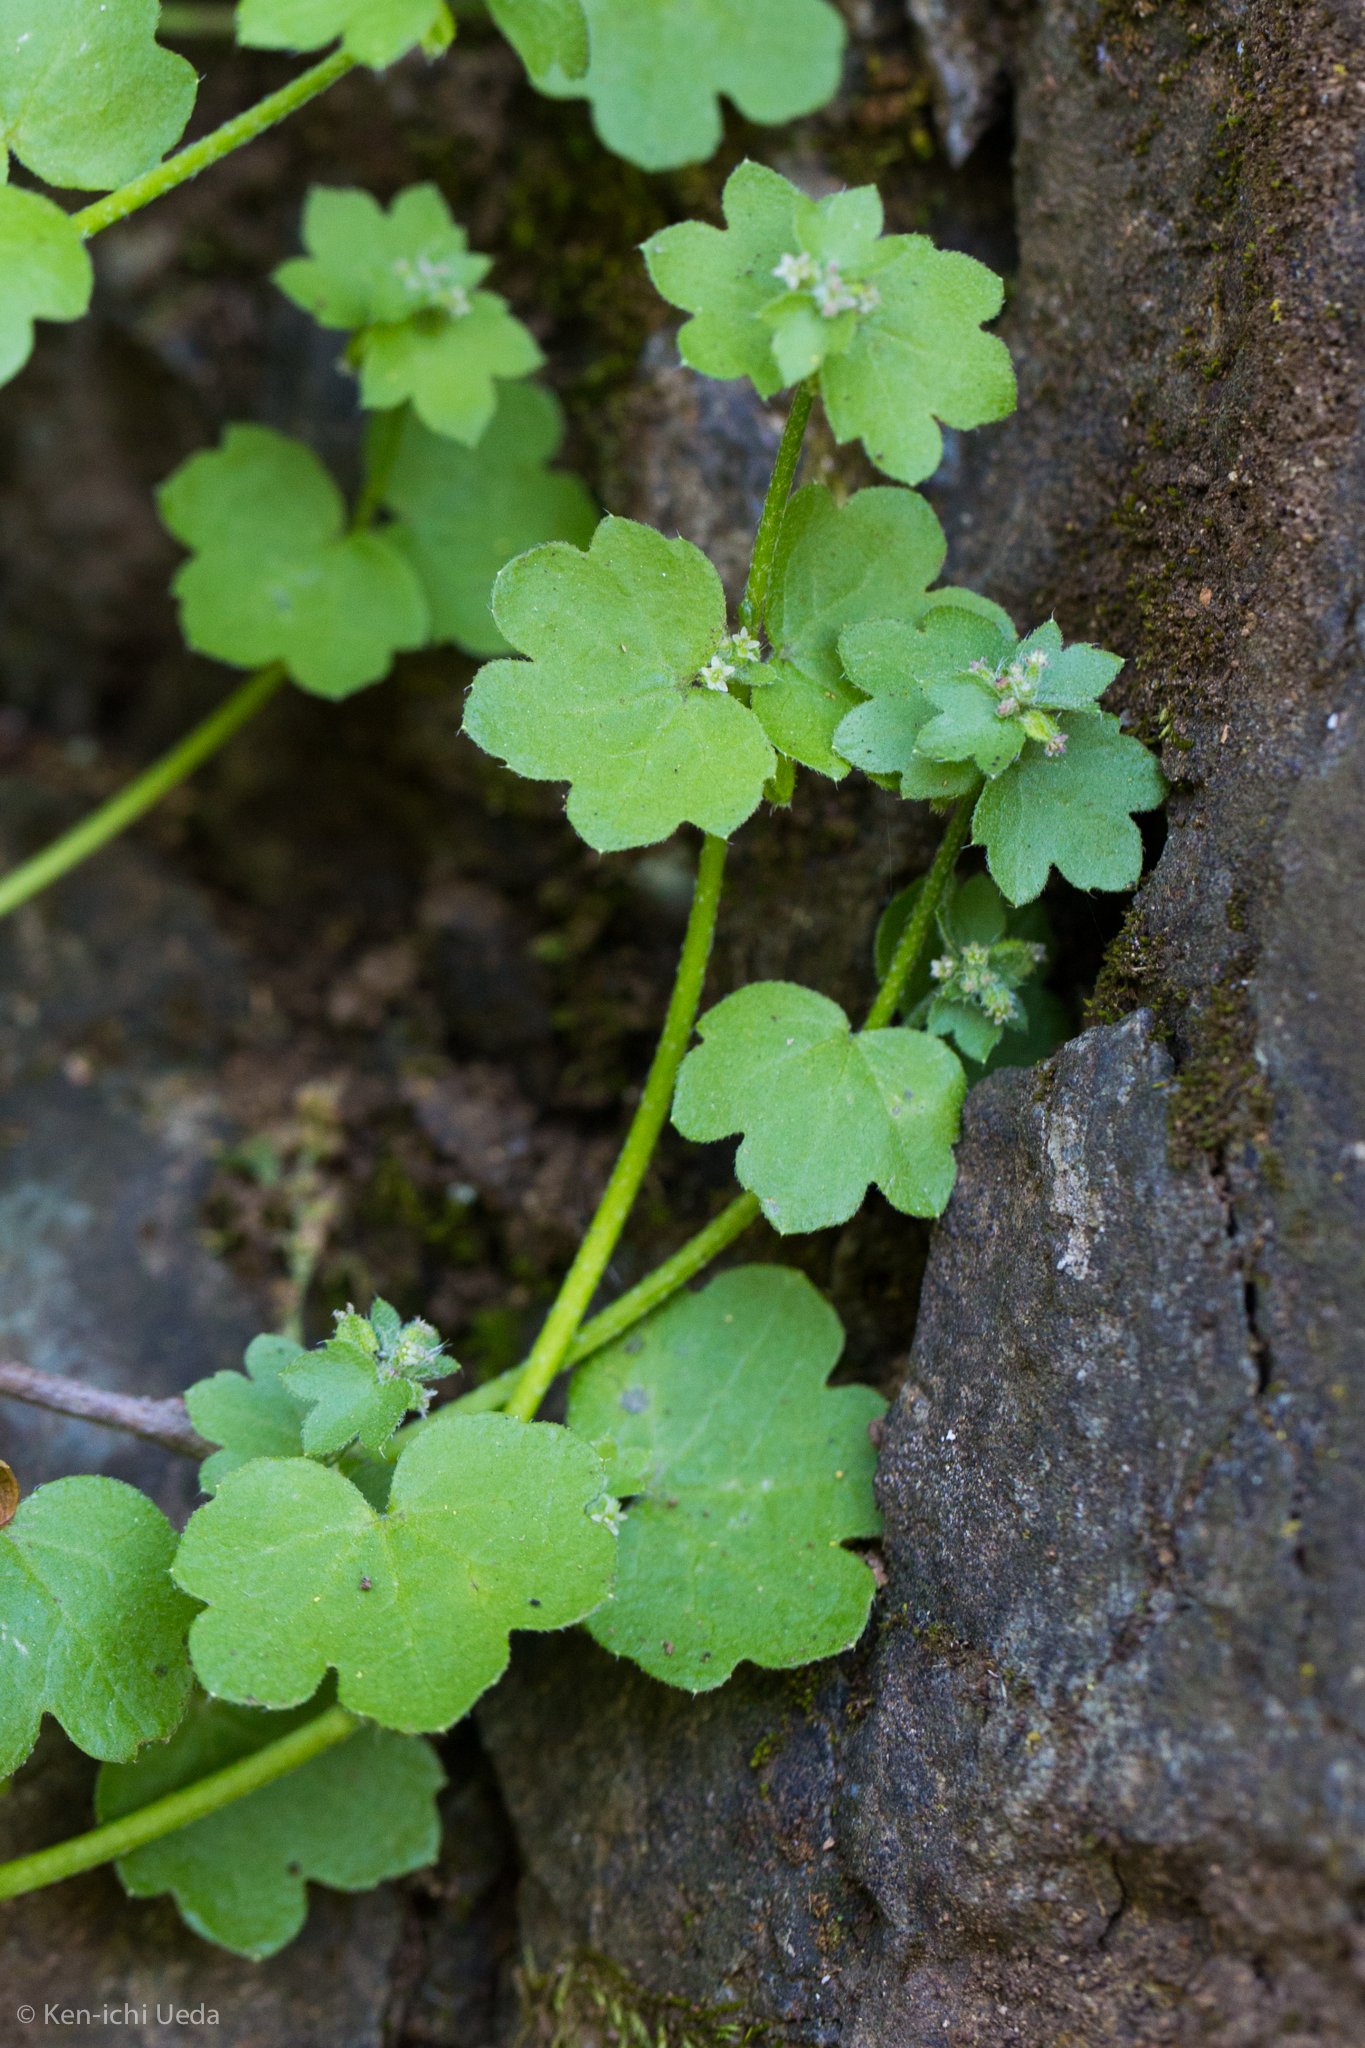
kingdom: Plantae
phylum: Tracheophyta
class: Magnoliopsida
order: Apiales
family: Apiaceae
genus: Bowlesia
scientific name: Bowlesia incana
